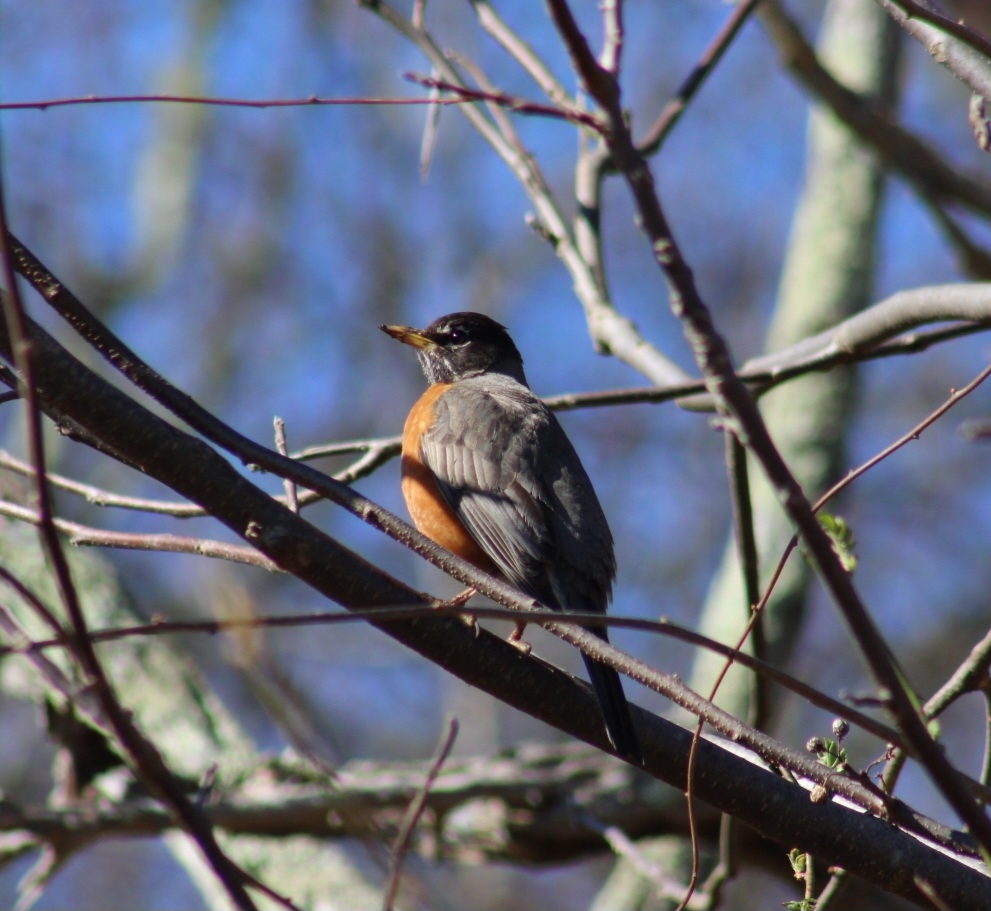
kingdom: Animalia
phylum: Chordata
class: Aves
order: Passeriformes
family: Turdidae
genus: Turdus
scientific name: Turdus migratorius
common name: American robin
